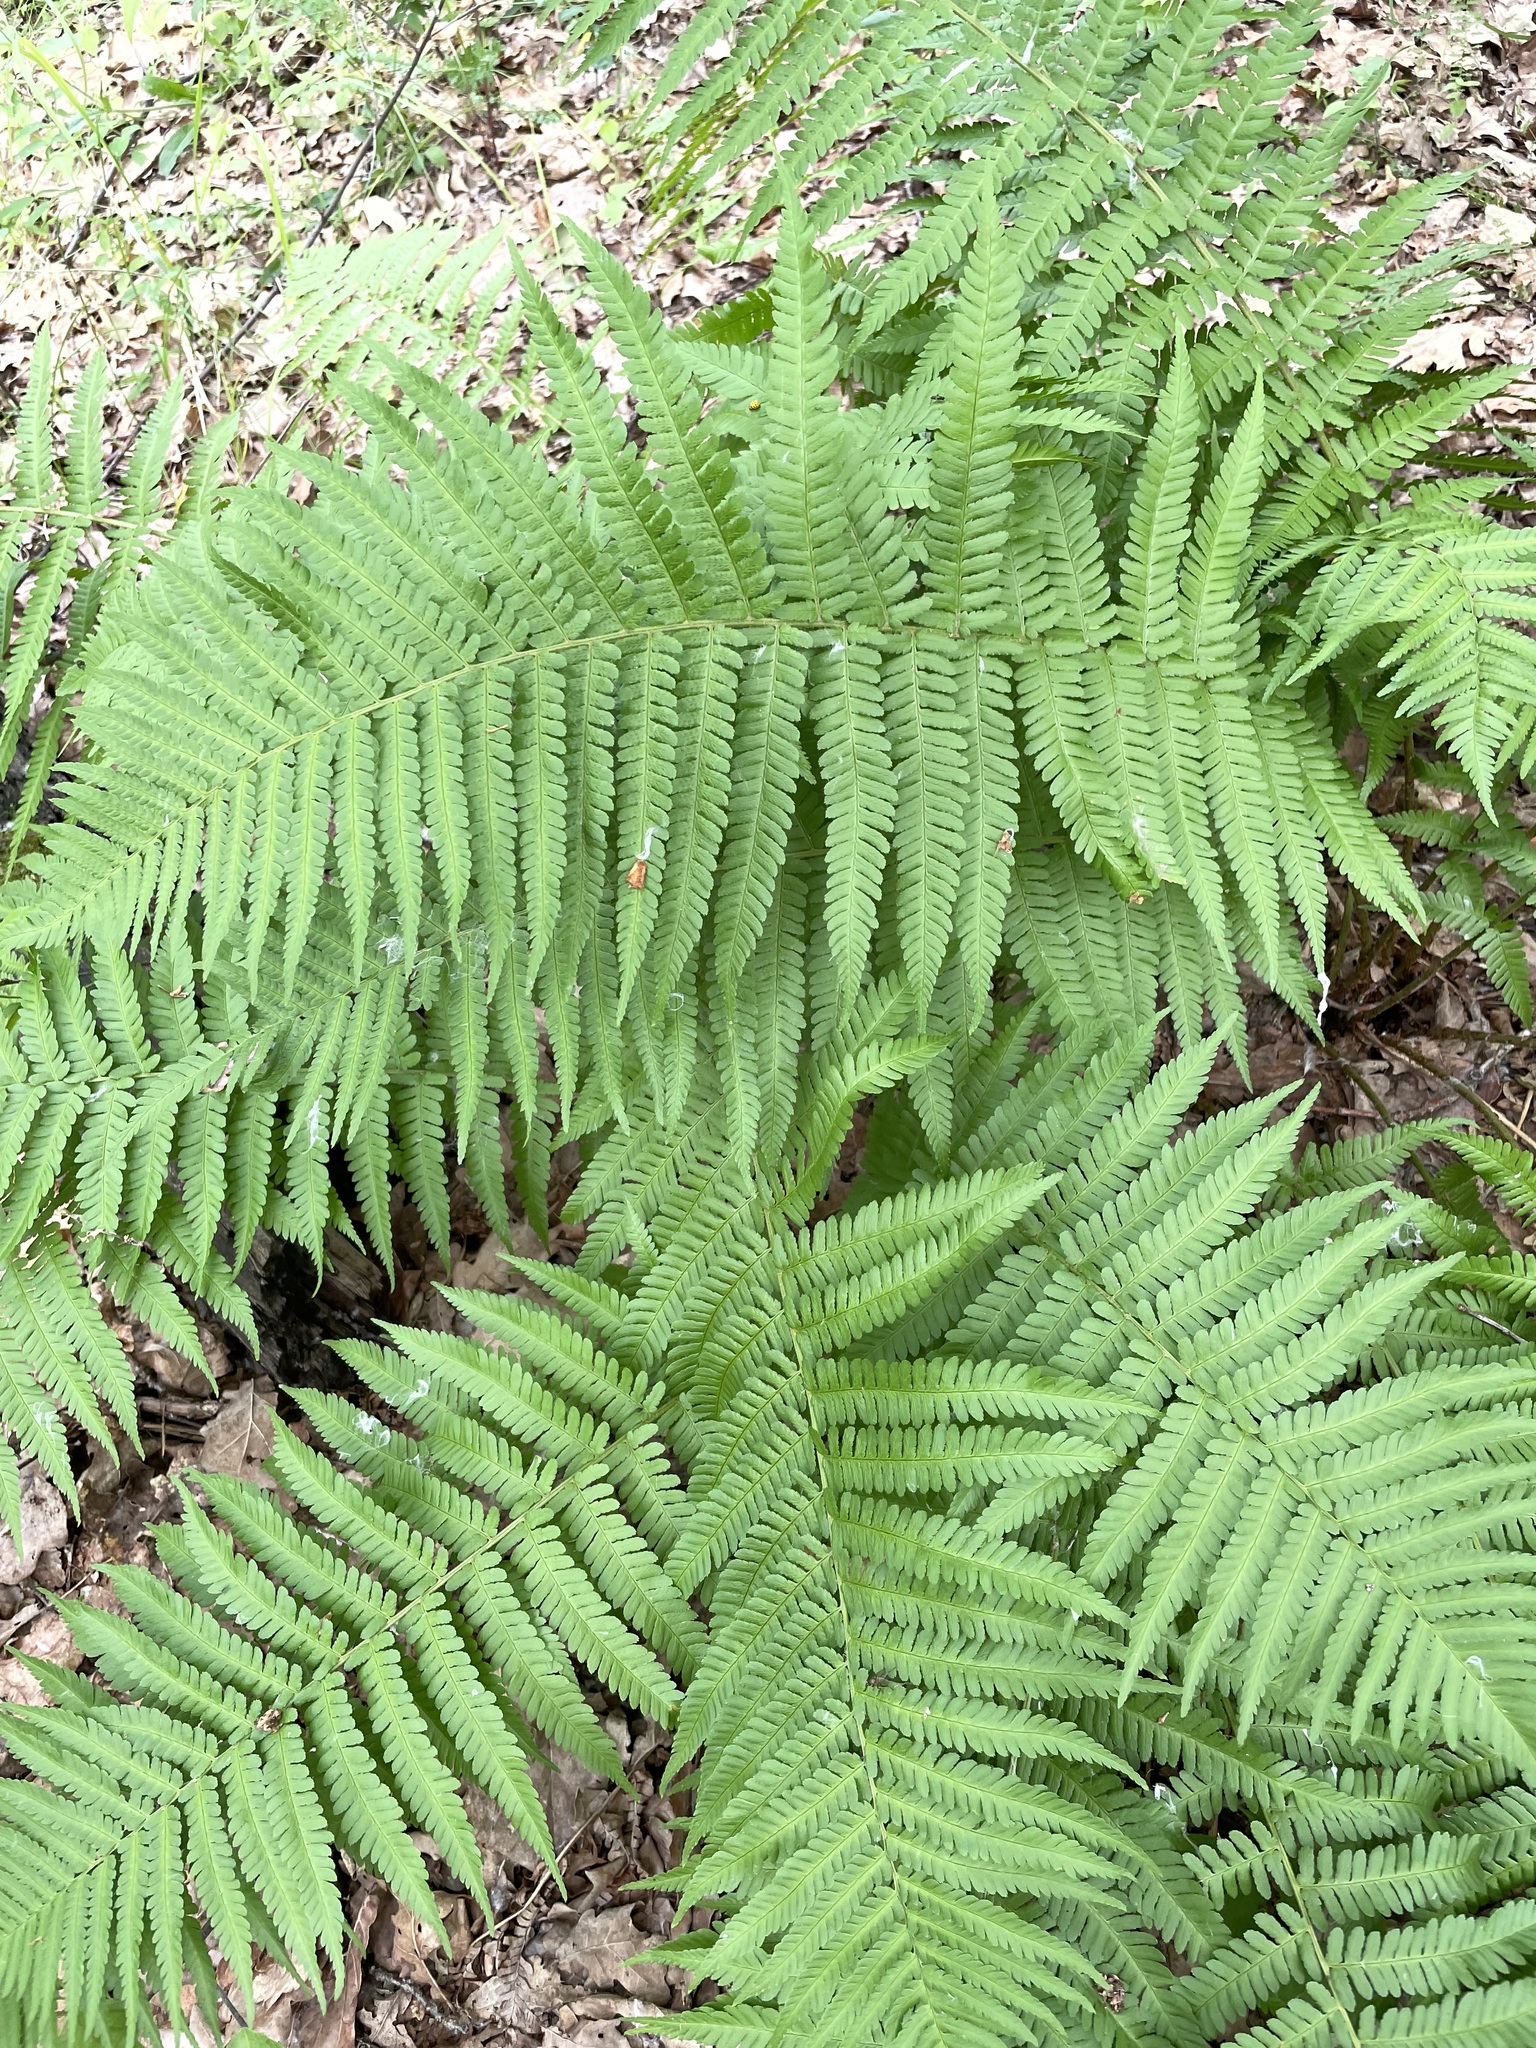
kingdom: Plantae
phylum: Tracheophyta
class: Polypodiopsida
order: Polypodiales
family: Dryopteridaceae
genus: Dryopteris
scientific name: Dryopteris filix-mas
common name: Male fern
